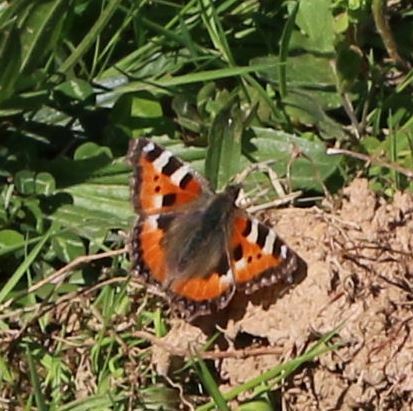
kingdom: Animalia
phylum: Arthropoda
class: Insecta
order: Lepidoptera
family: Nymphalidae
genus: Aglais
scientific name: Aglais urticae
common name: Small tortoiseshell
